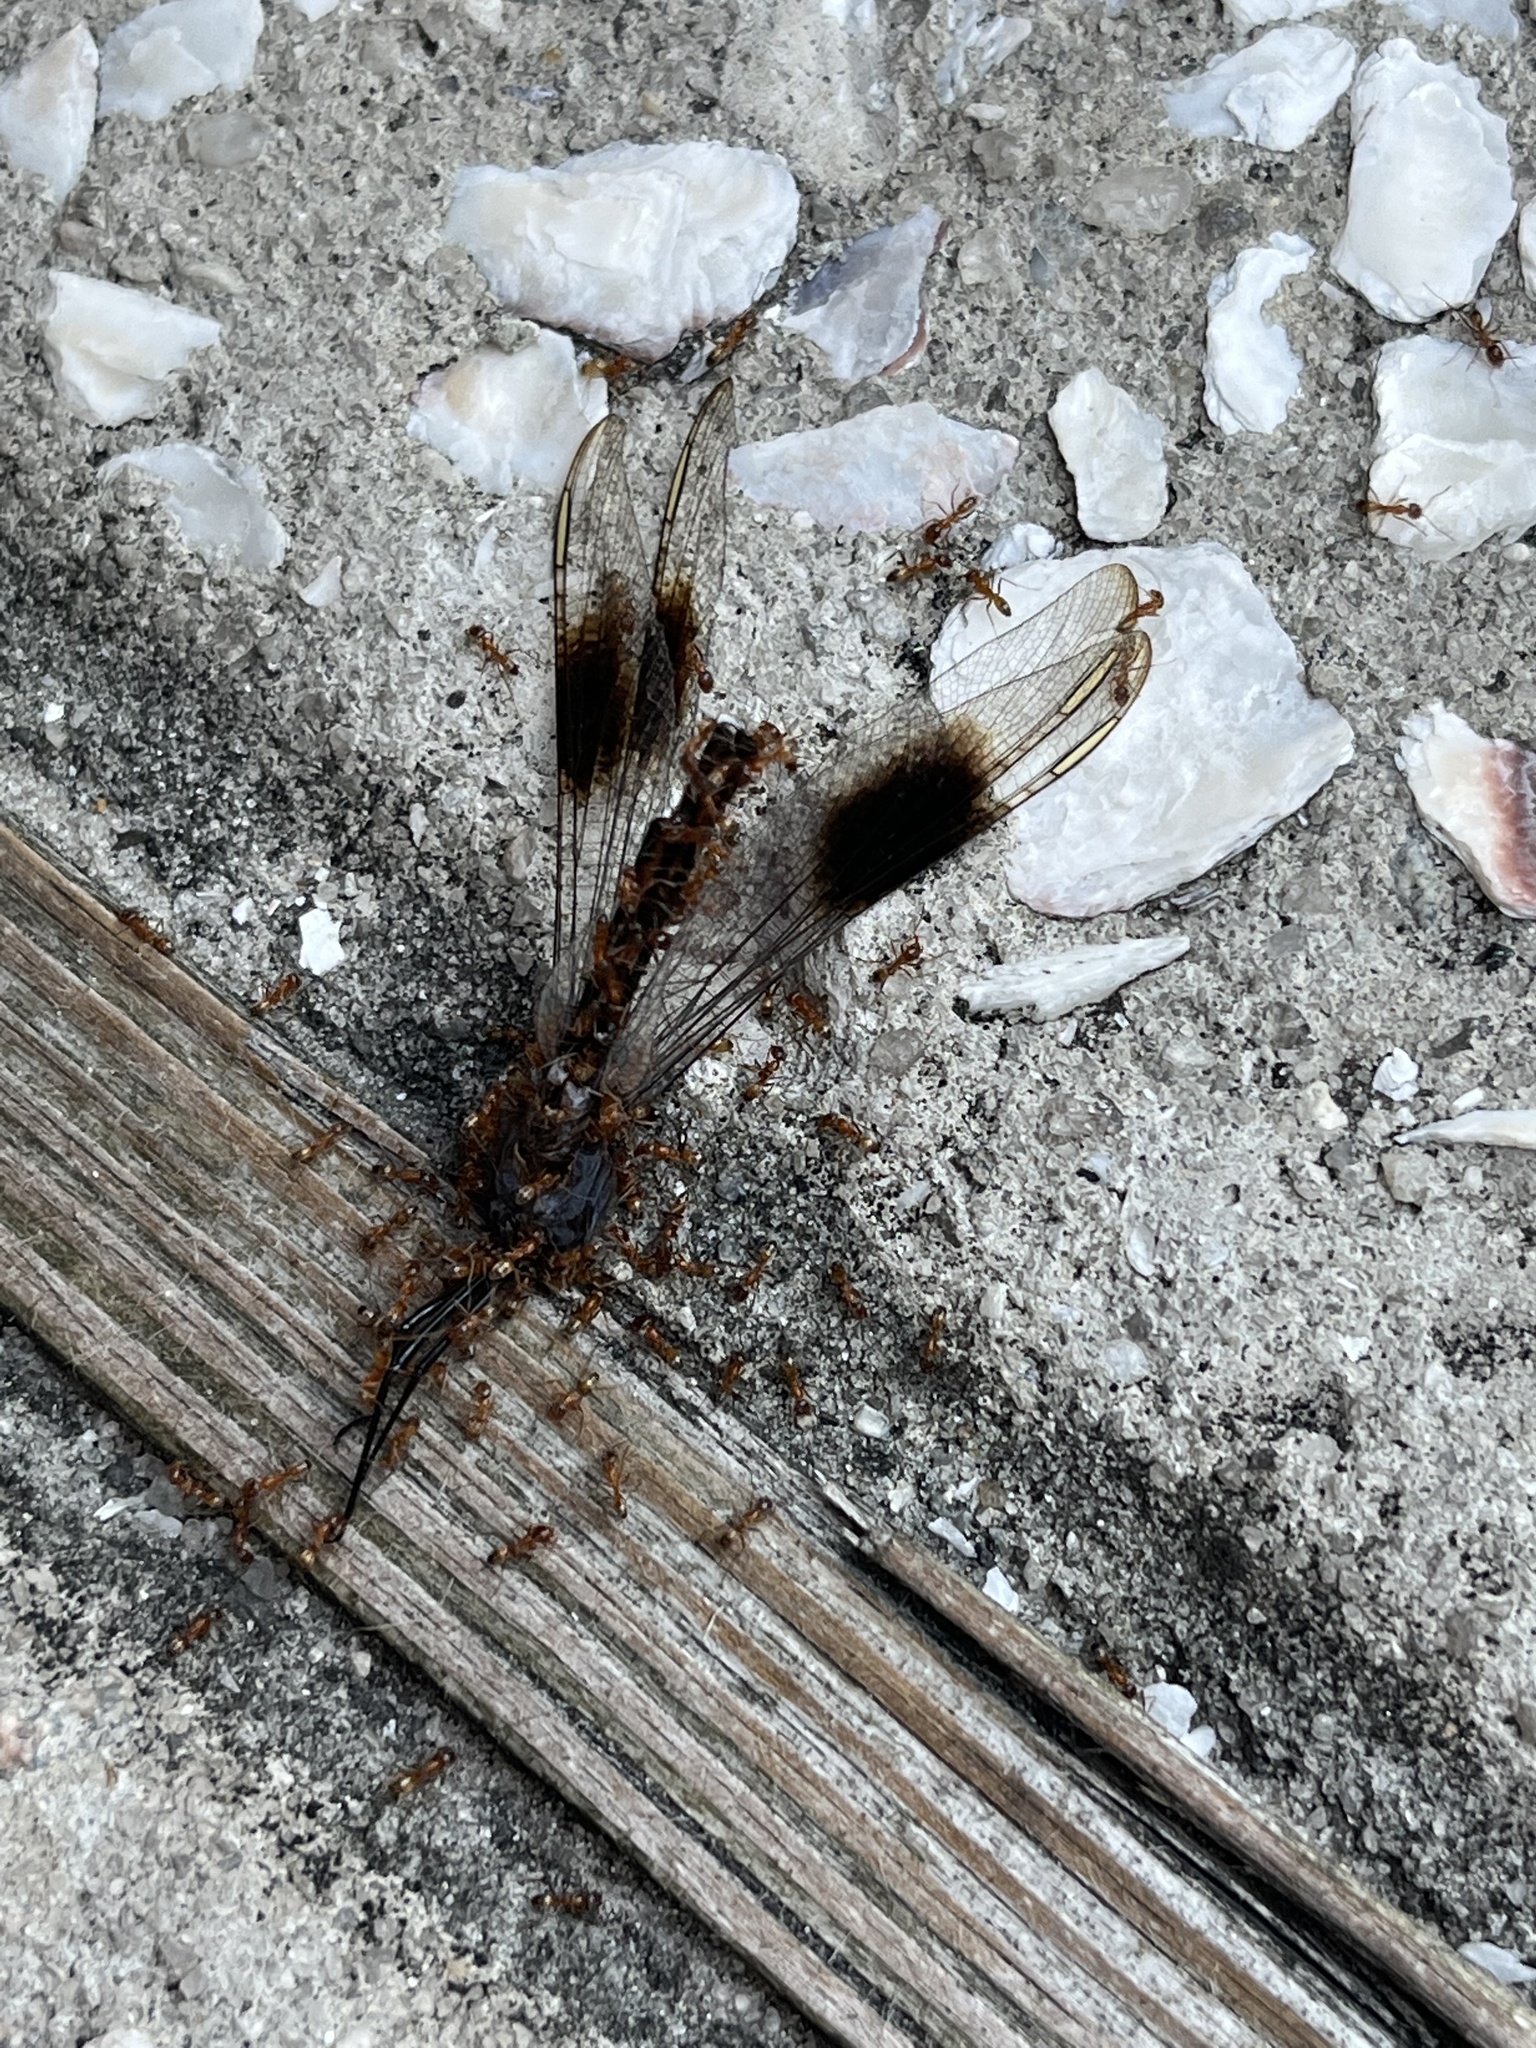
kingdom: Animalia
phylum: Arthropoda
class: Insecta
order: Odonata
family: Libellulidae
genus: Brachymesia
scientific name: Brachymesia gravida
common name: Four-spotted pennant
